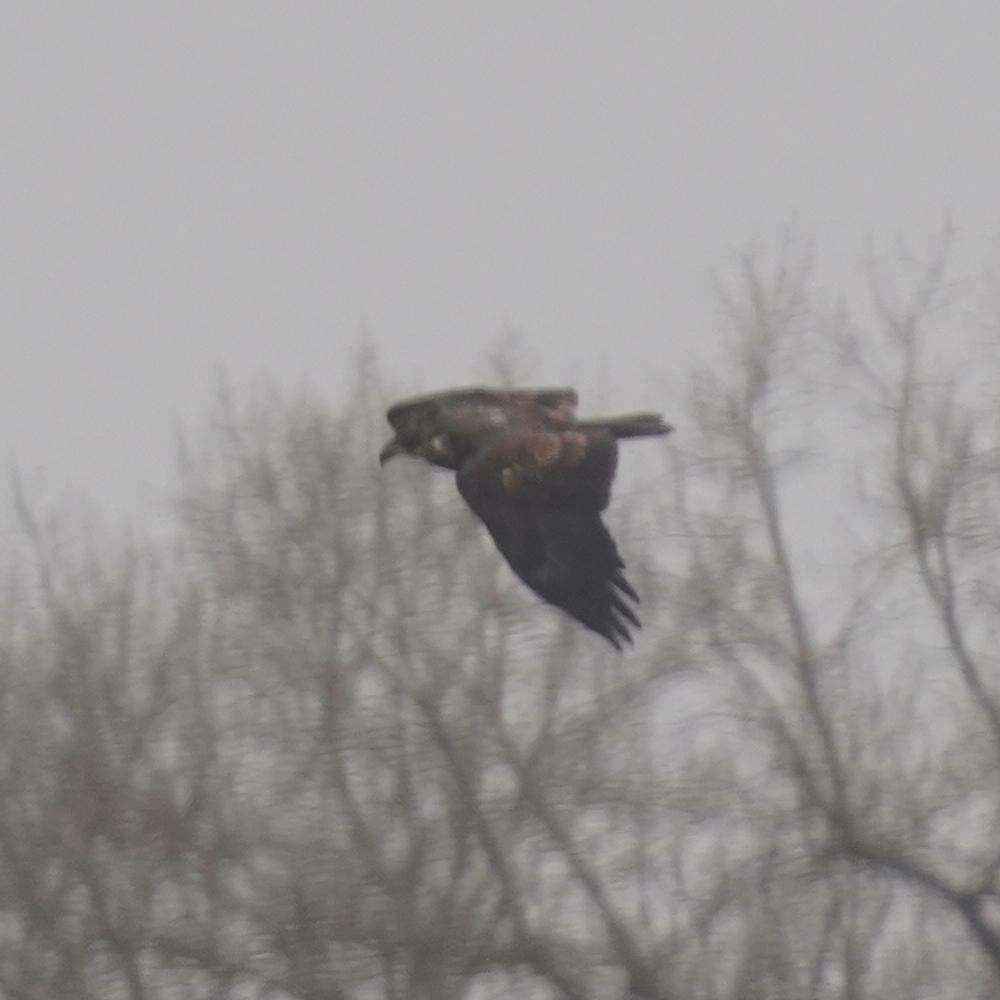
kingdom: Animalia
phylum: Chordata
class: Aves
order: Accipitriformes
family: Accipitridae
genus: Haliaeetus
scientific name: Haliaeetus leucocephalus
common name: Bald eagle
